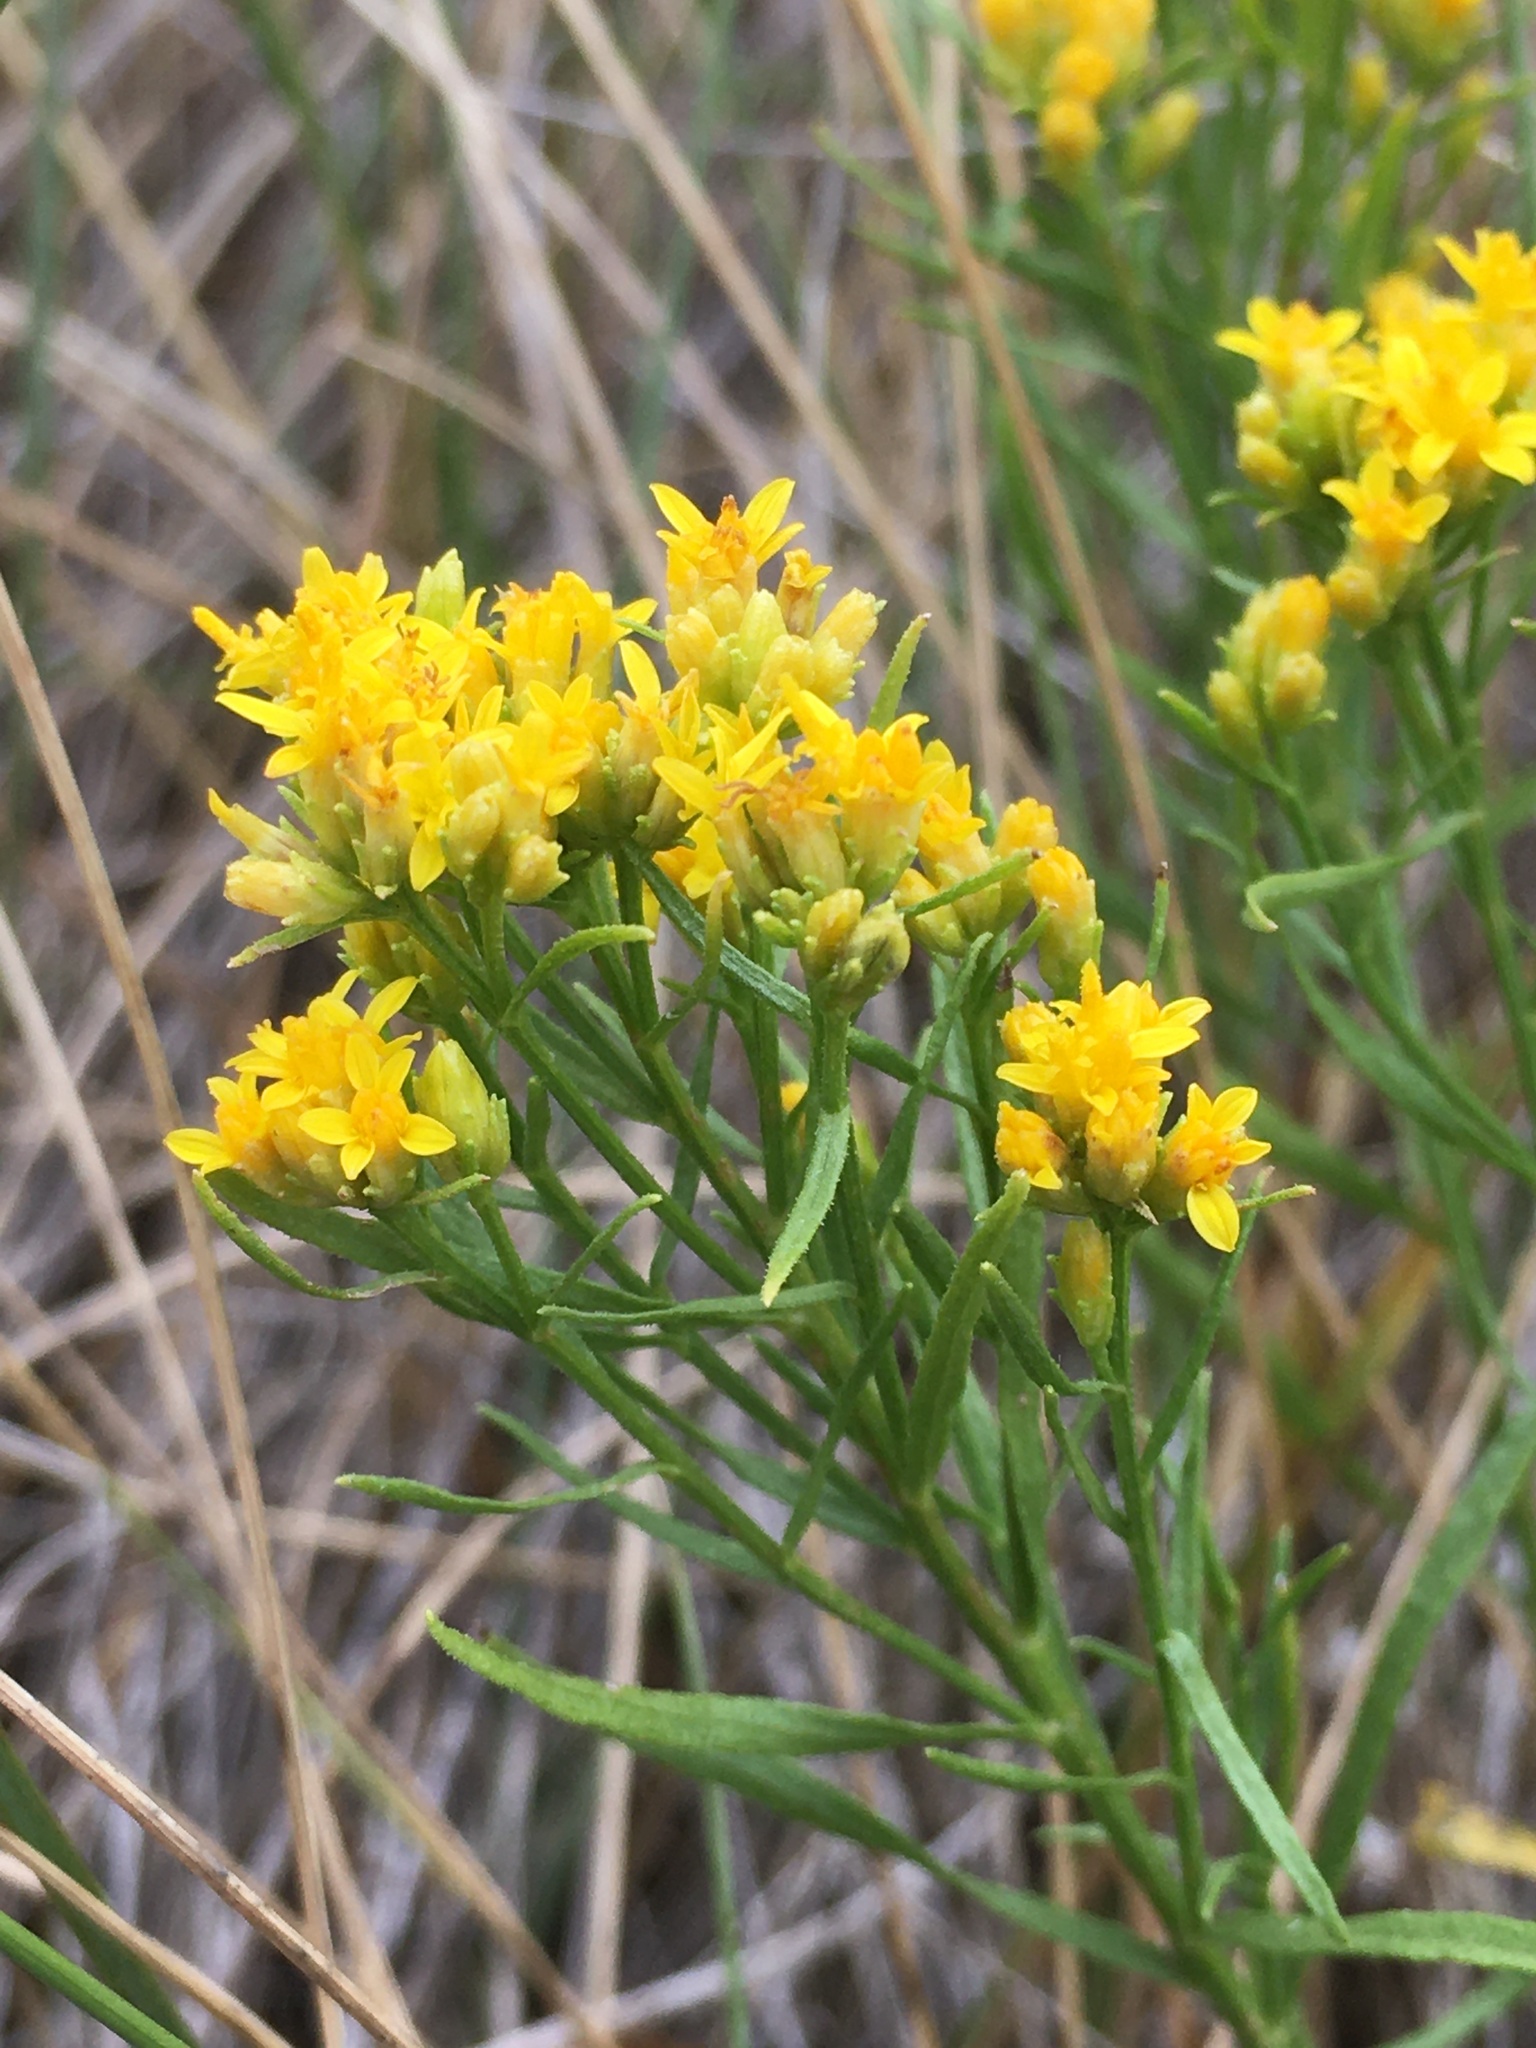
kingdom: Plantae
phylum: Tracheophyta
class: Magnoliopsida
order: Asterales
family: Asteraceae
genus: Gutierrezia
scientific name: Gutierrezia sarothrae
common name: Broom snakeweed
